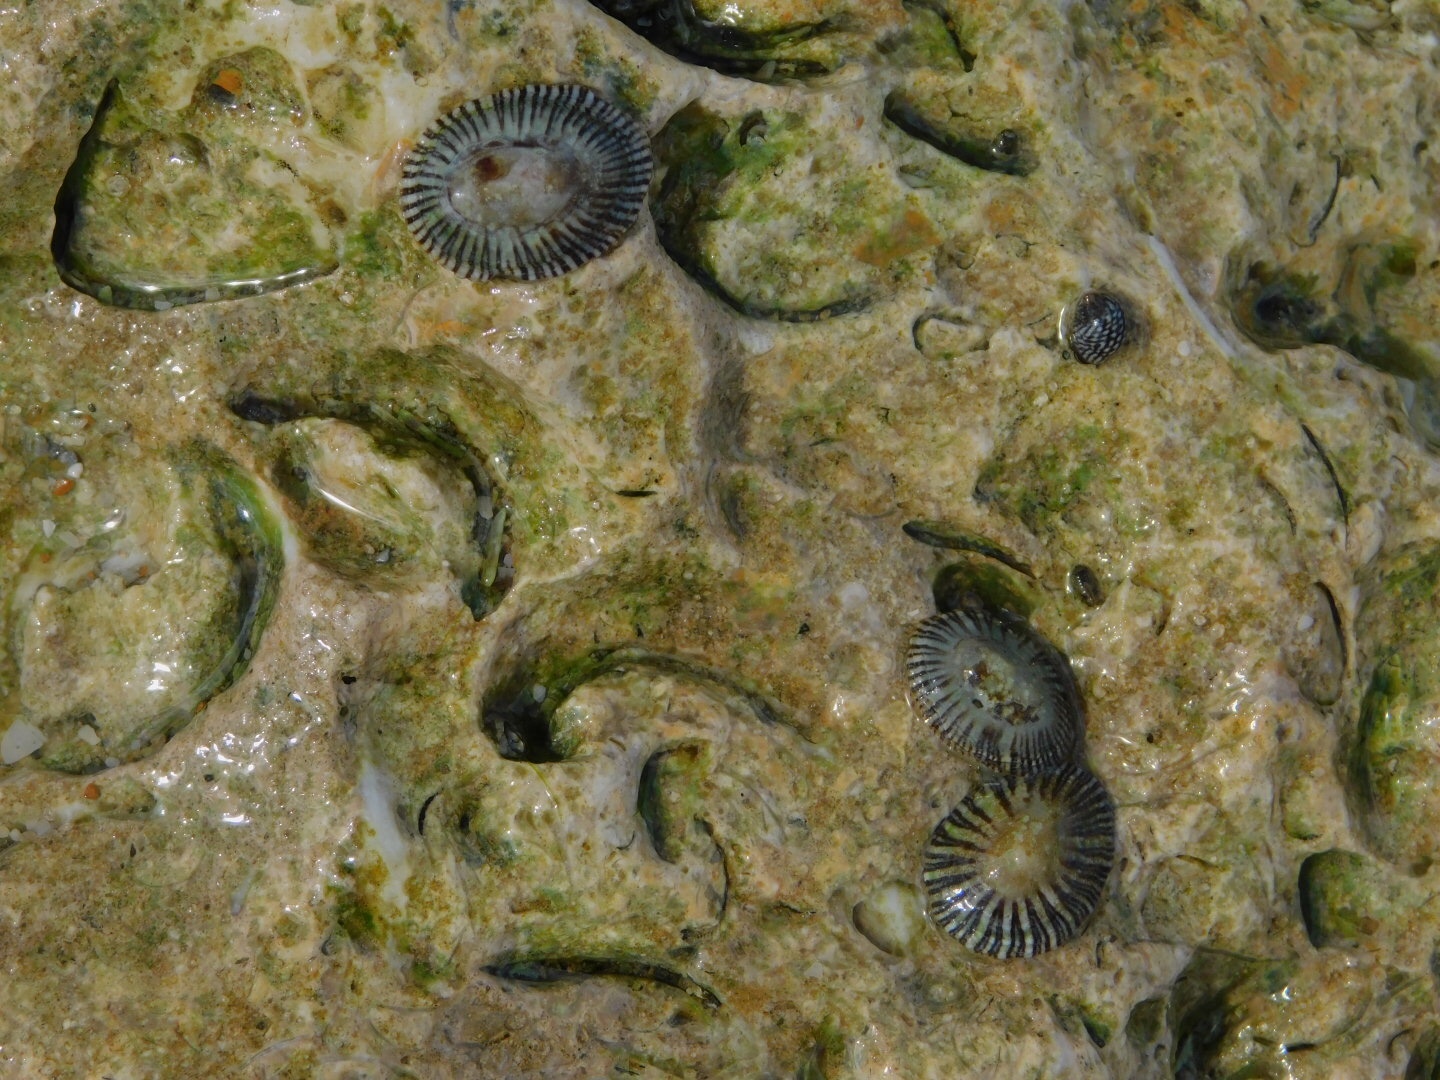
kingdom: Animalia
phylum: Mollusca
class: Gastropoda
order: Siphonariida
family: Siphonariidae
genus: Siphonaria
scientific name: Siphonaria naufragum
